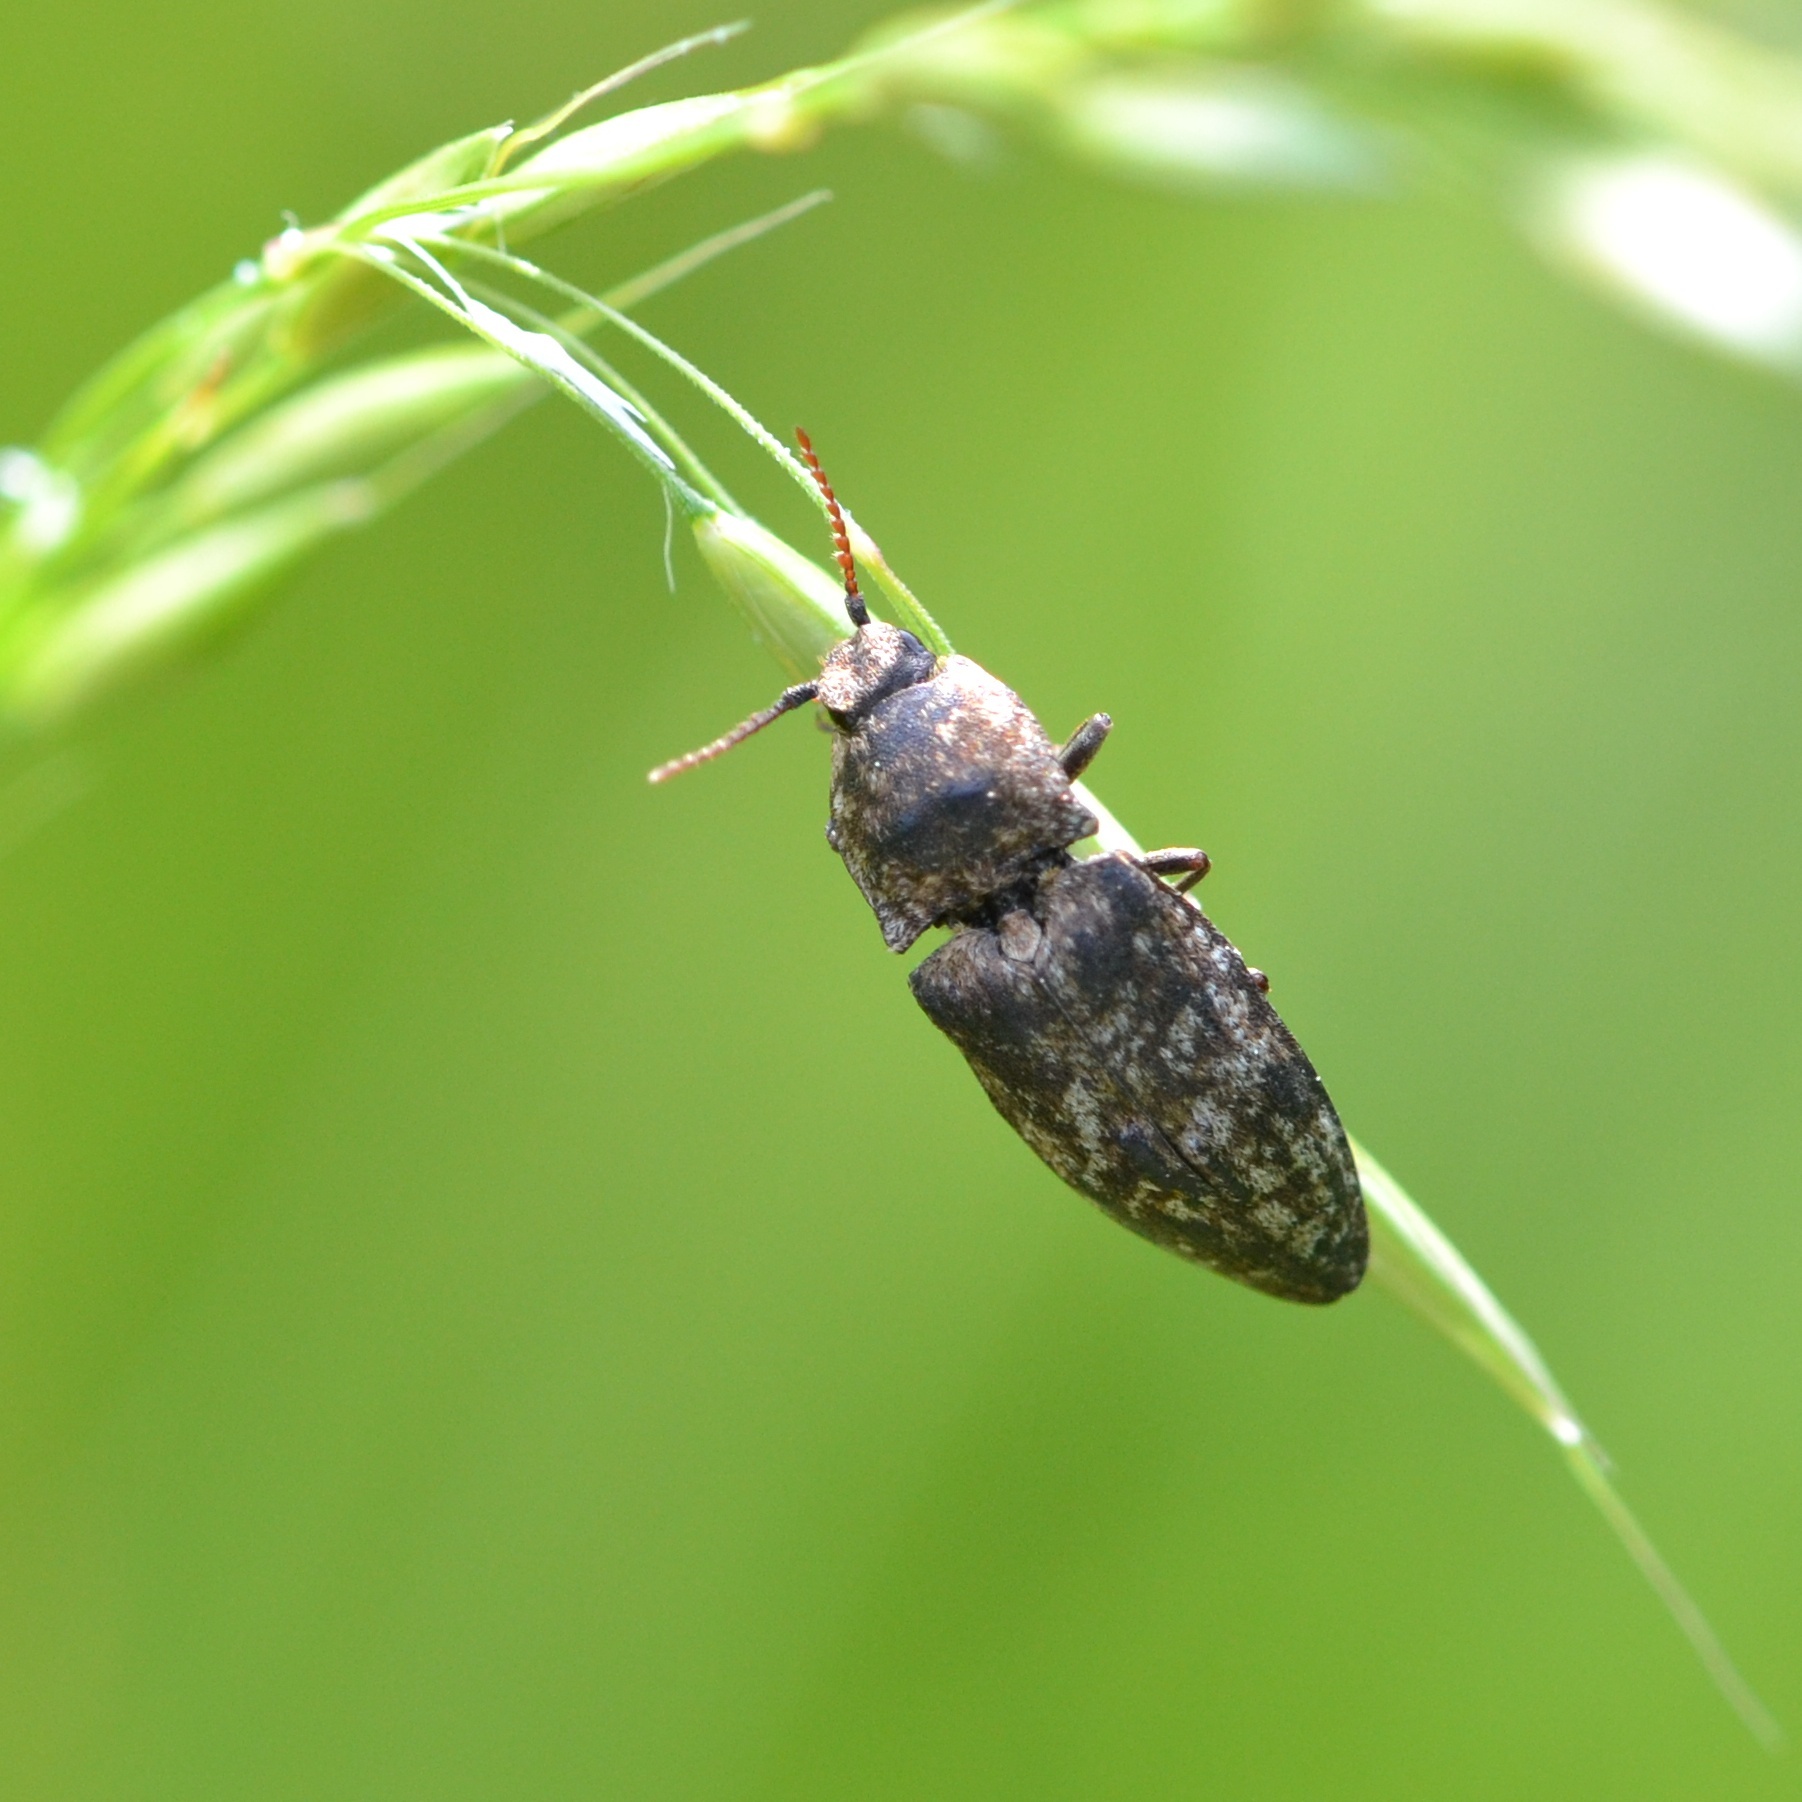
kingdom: Animalia
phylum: Arthropoda
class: Insecta
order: Coleoptera
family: Elateridae
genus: Agrypnus
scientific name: Agrypnus murinus
